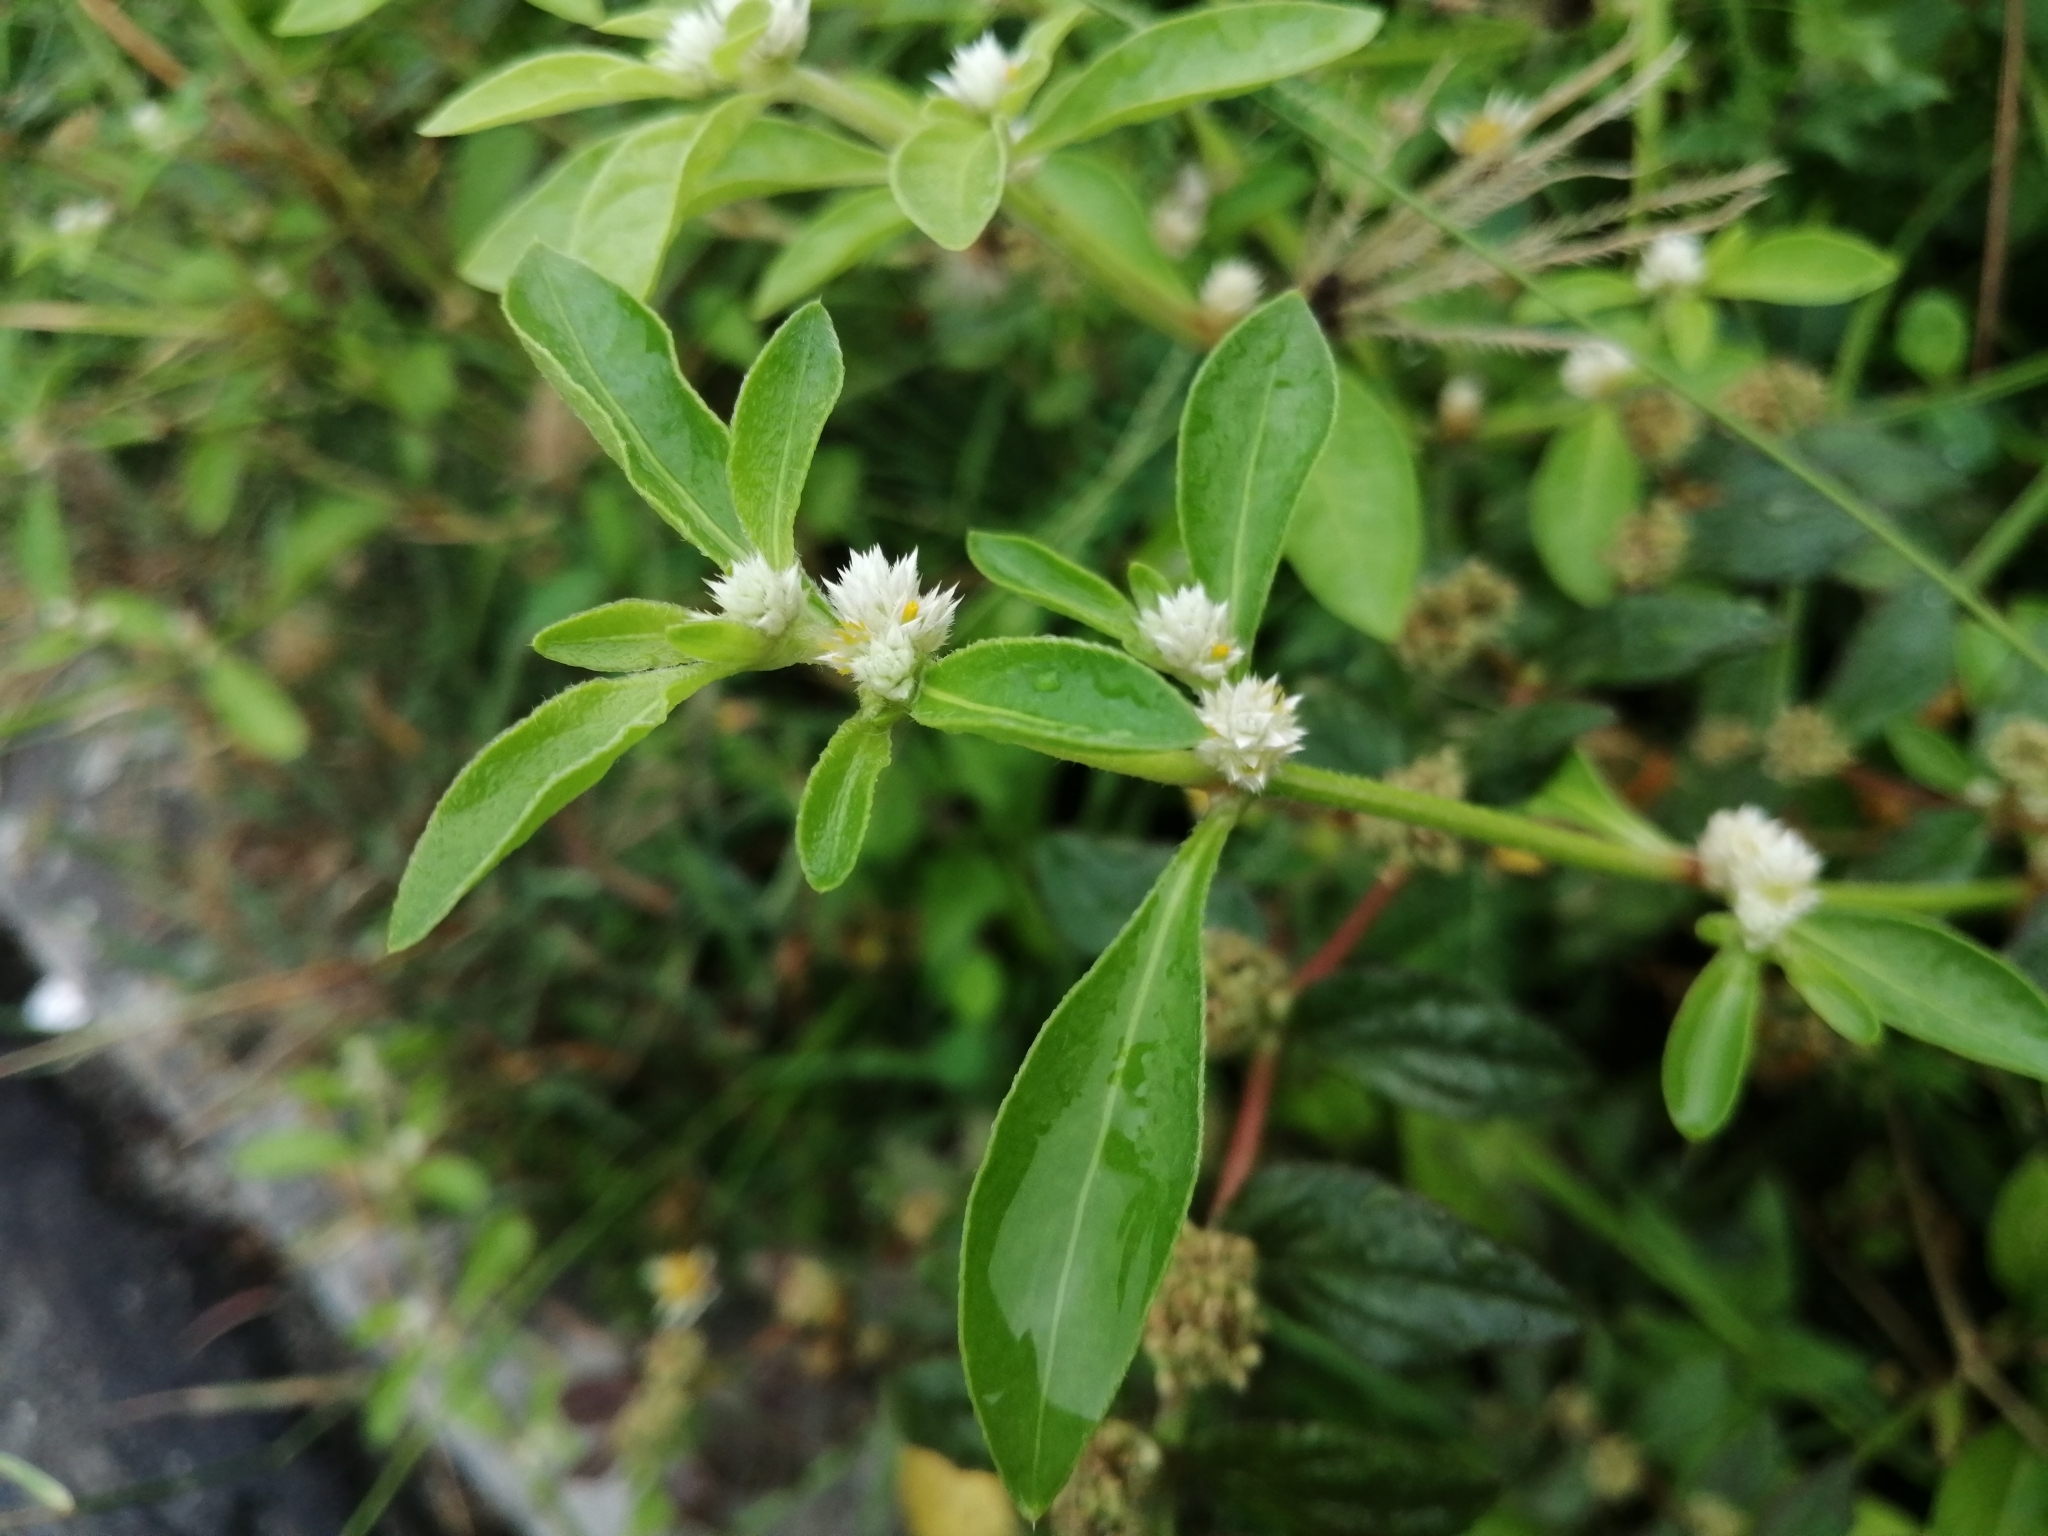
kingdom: Plantae
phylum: Tracheophyta
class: Magnoliopsida
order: Caryophyllales
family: Amaranthaceae
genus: Alternanthera
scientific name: Alternanthera bettzickiana
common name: Calico-plant
